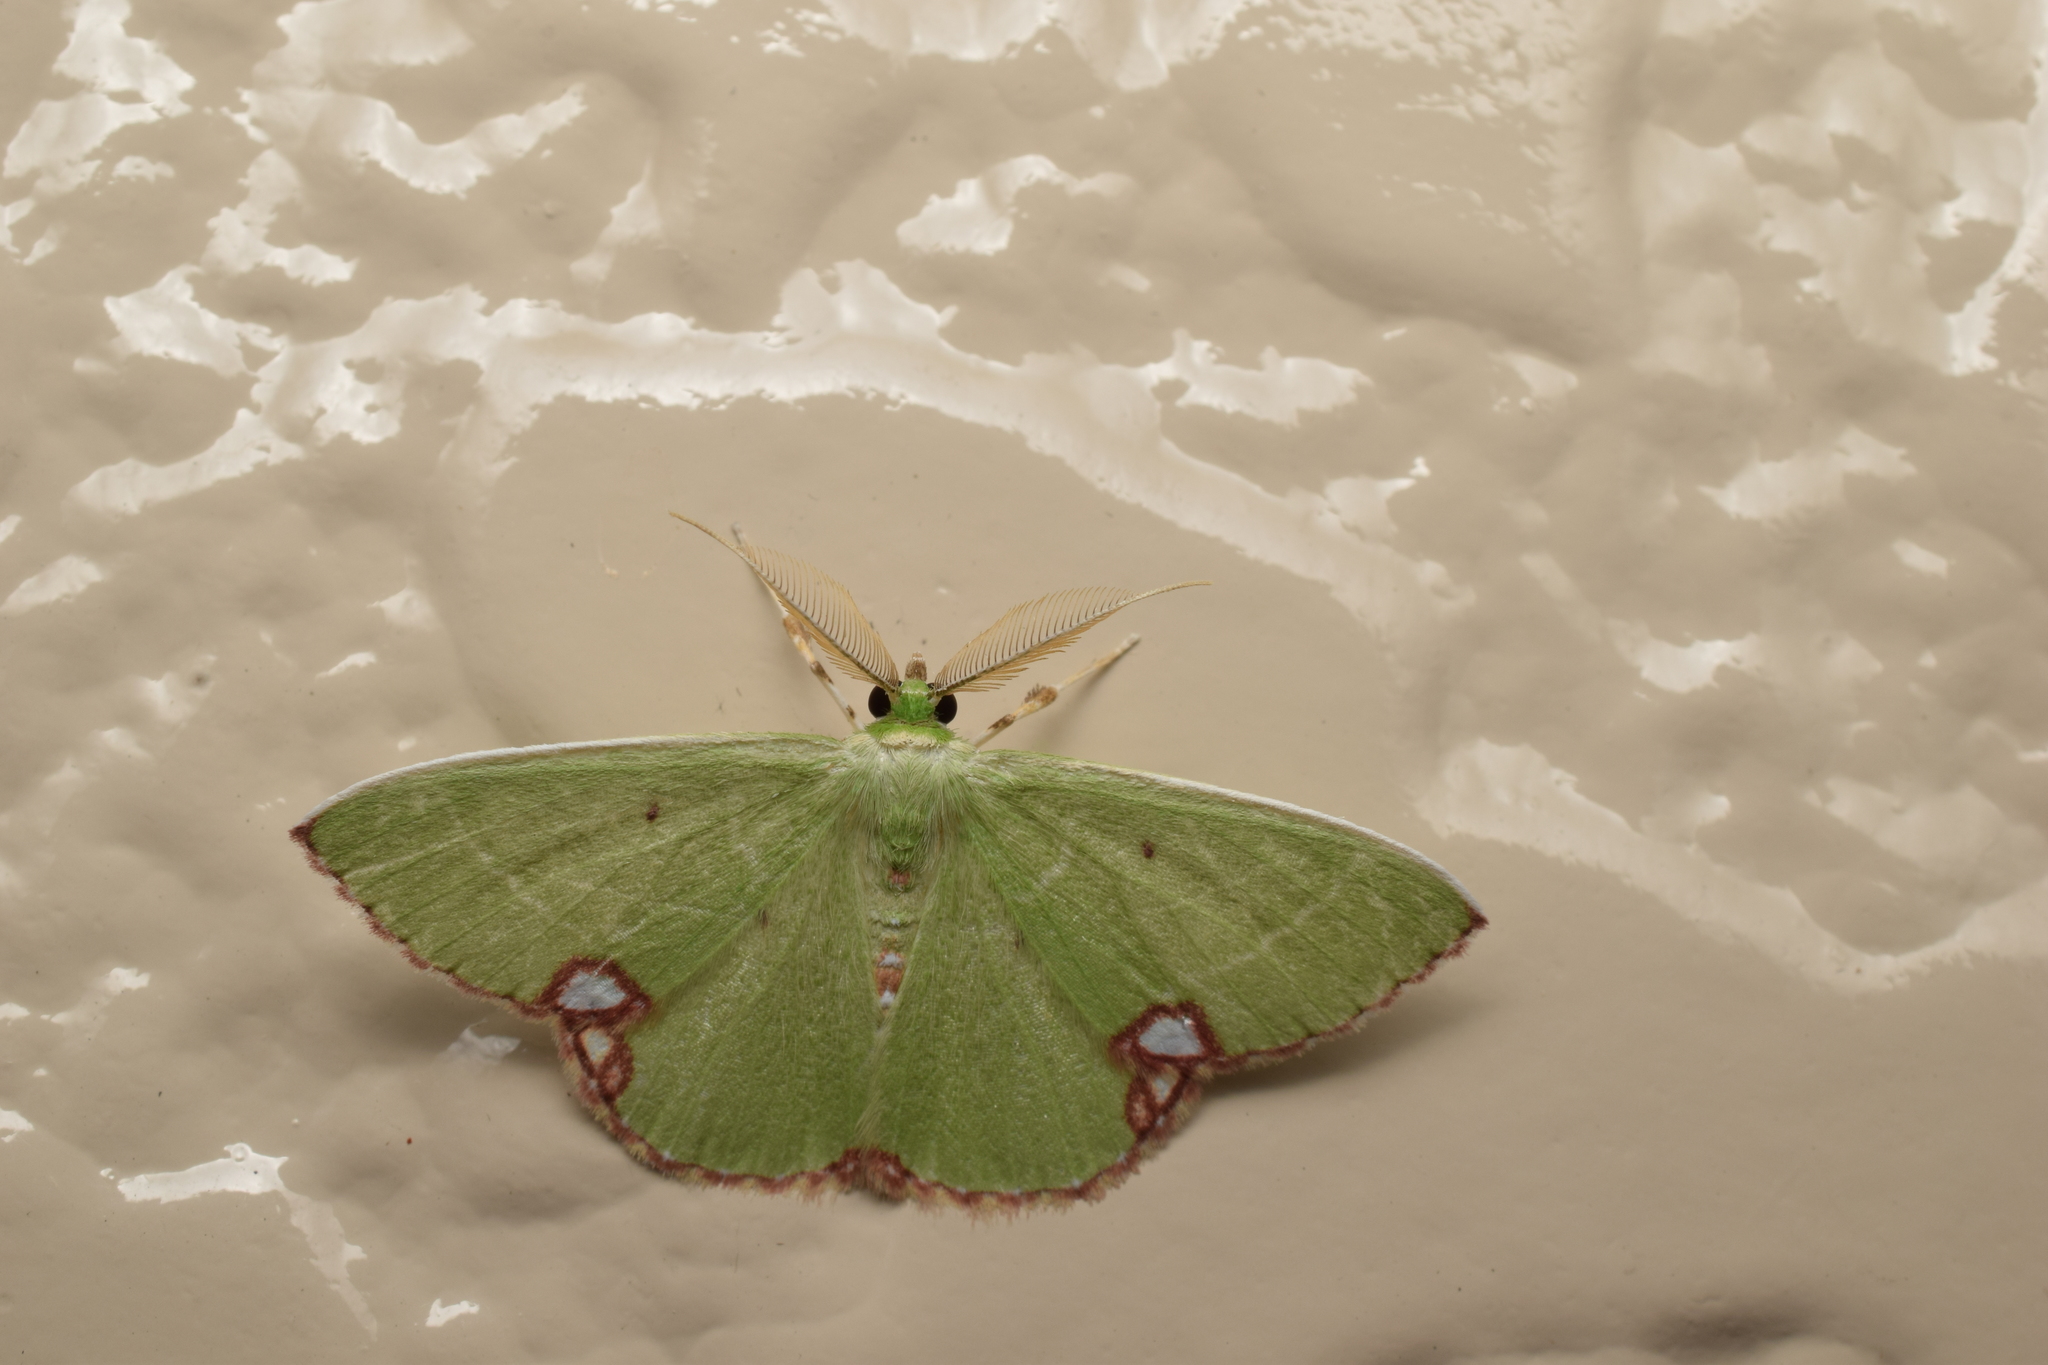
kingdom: Animalia
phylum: Arthropoda
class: Insecta
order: Lepidoptera
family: Geometridae
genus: Comibaena
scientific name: Comibaena procumbaria
